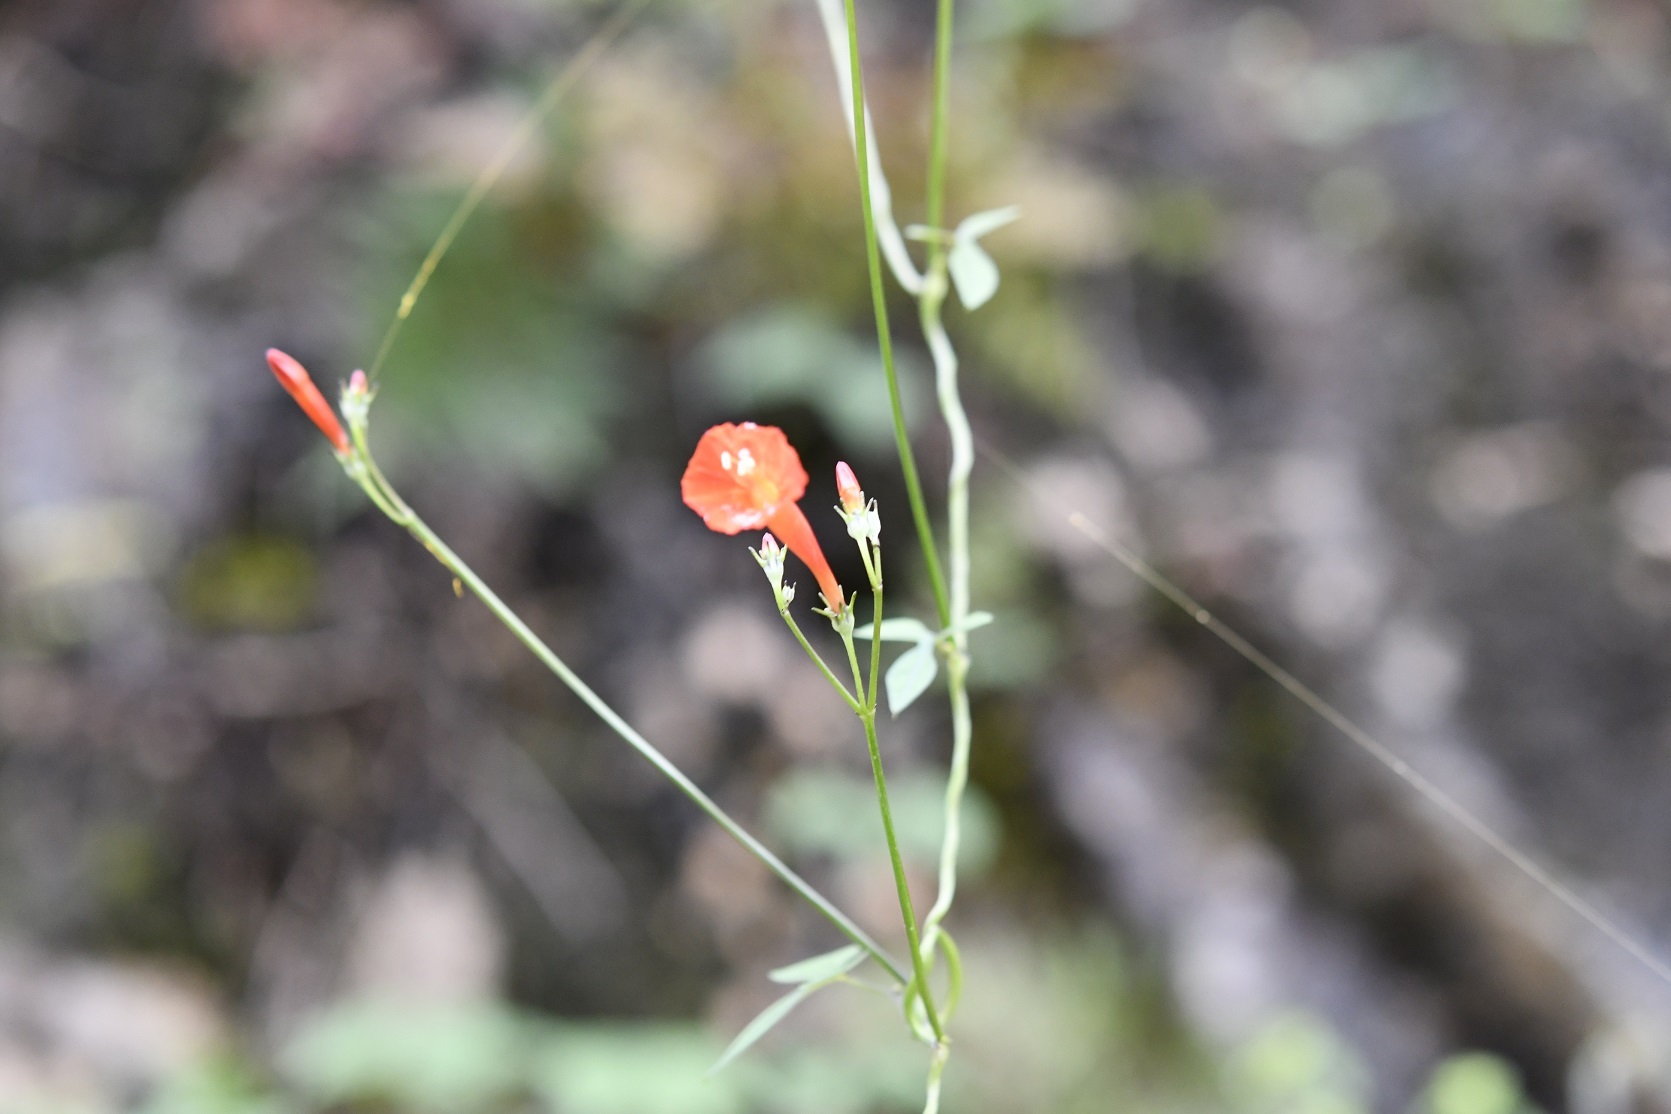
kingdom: Plantae
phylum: Tracheophyta
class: Magnoliopsida
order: Solanales
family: Convolvulaceae
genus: Ipomoea
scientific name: Ipomoea hederifolia
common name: Ivy-leaf morning-glory
